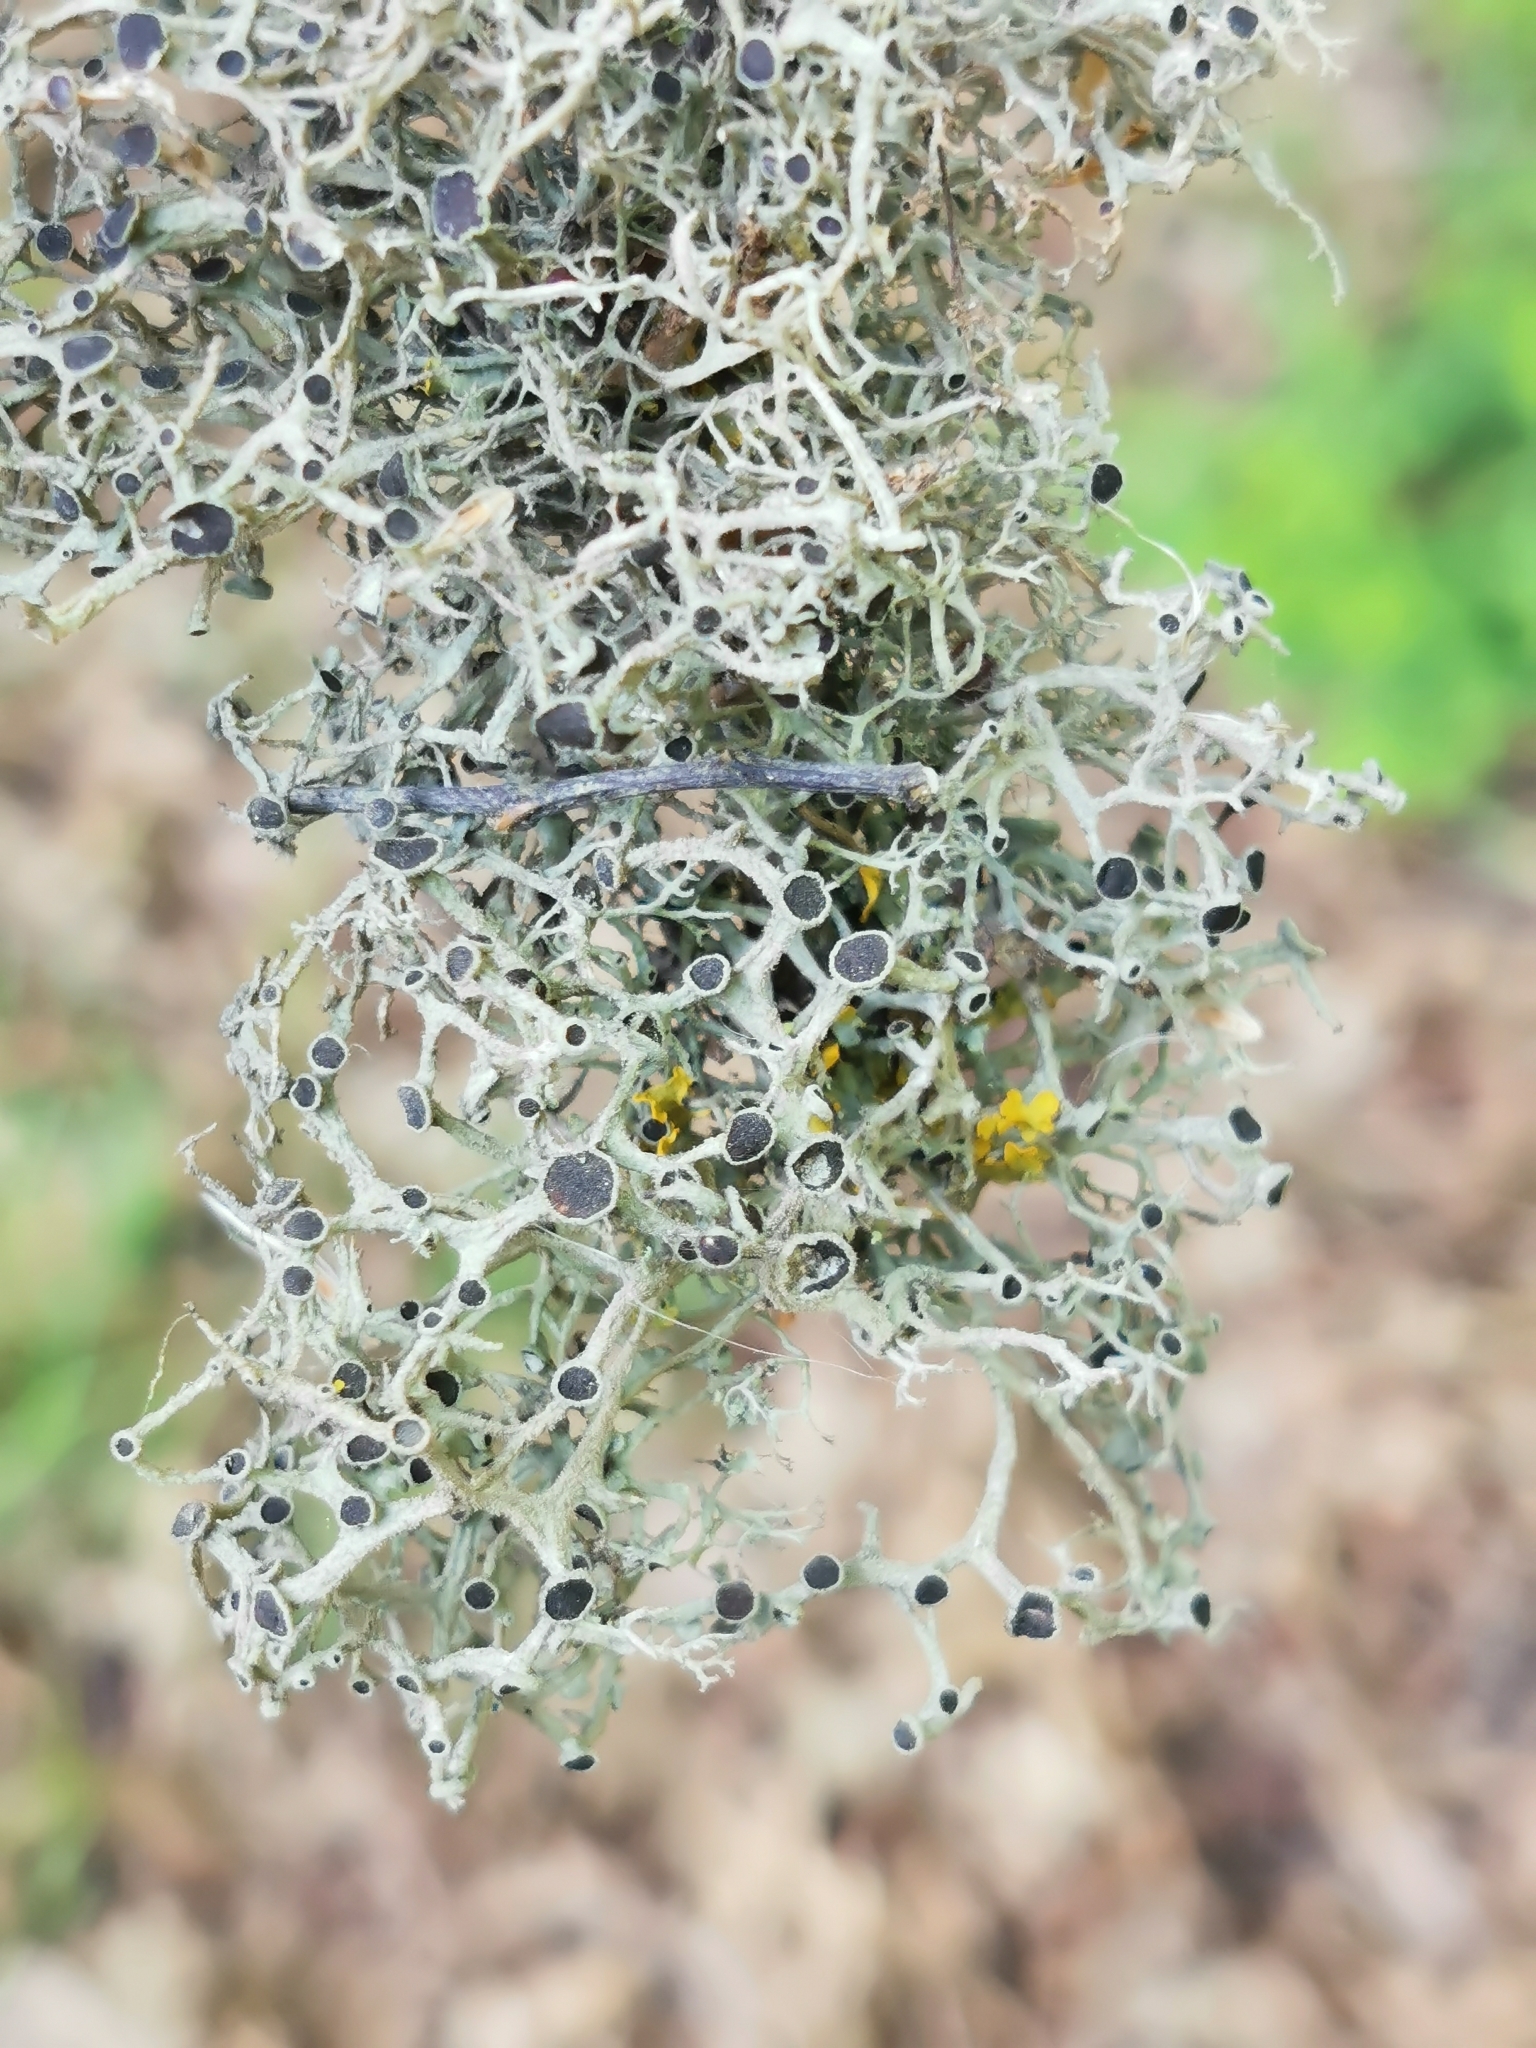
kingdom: Fungi
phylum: Ascomycota
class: Lecanoromycetes
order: Caliciales
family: Physciaceae
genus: Tornabea
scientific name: Tornabea scutellifera
